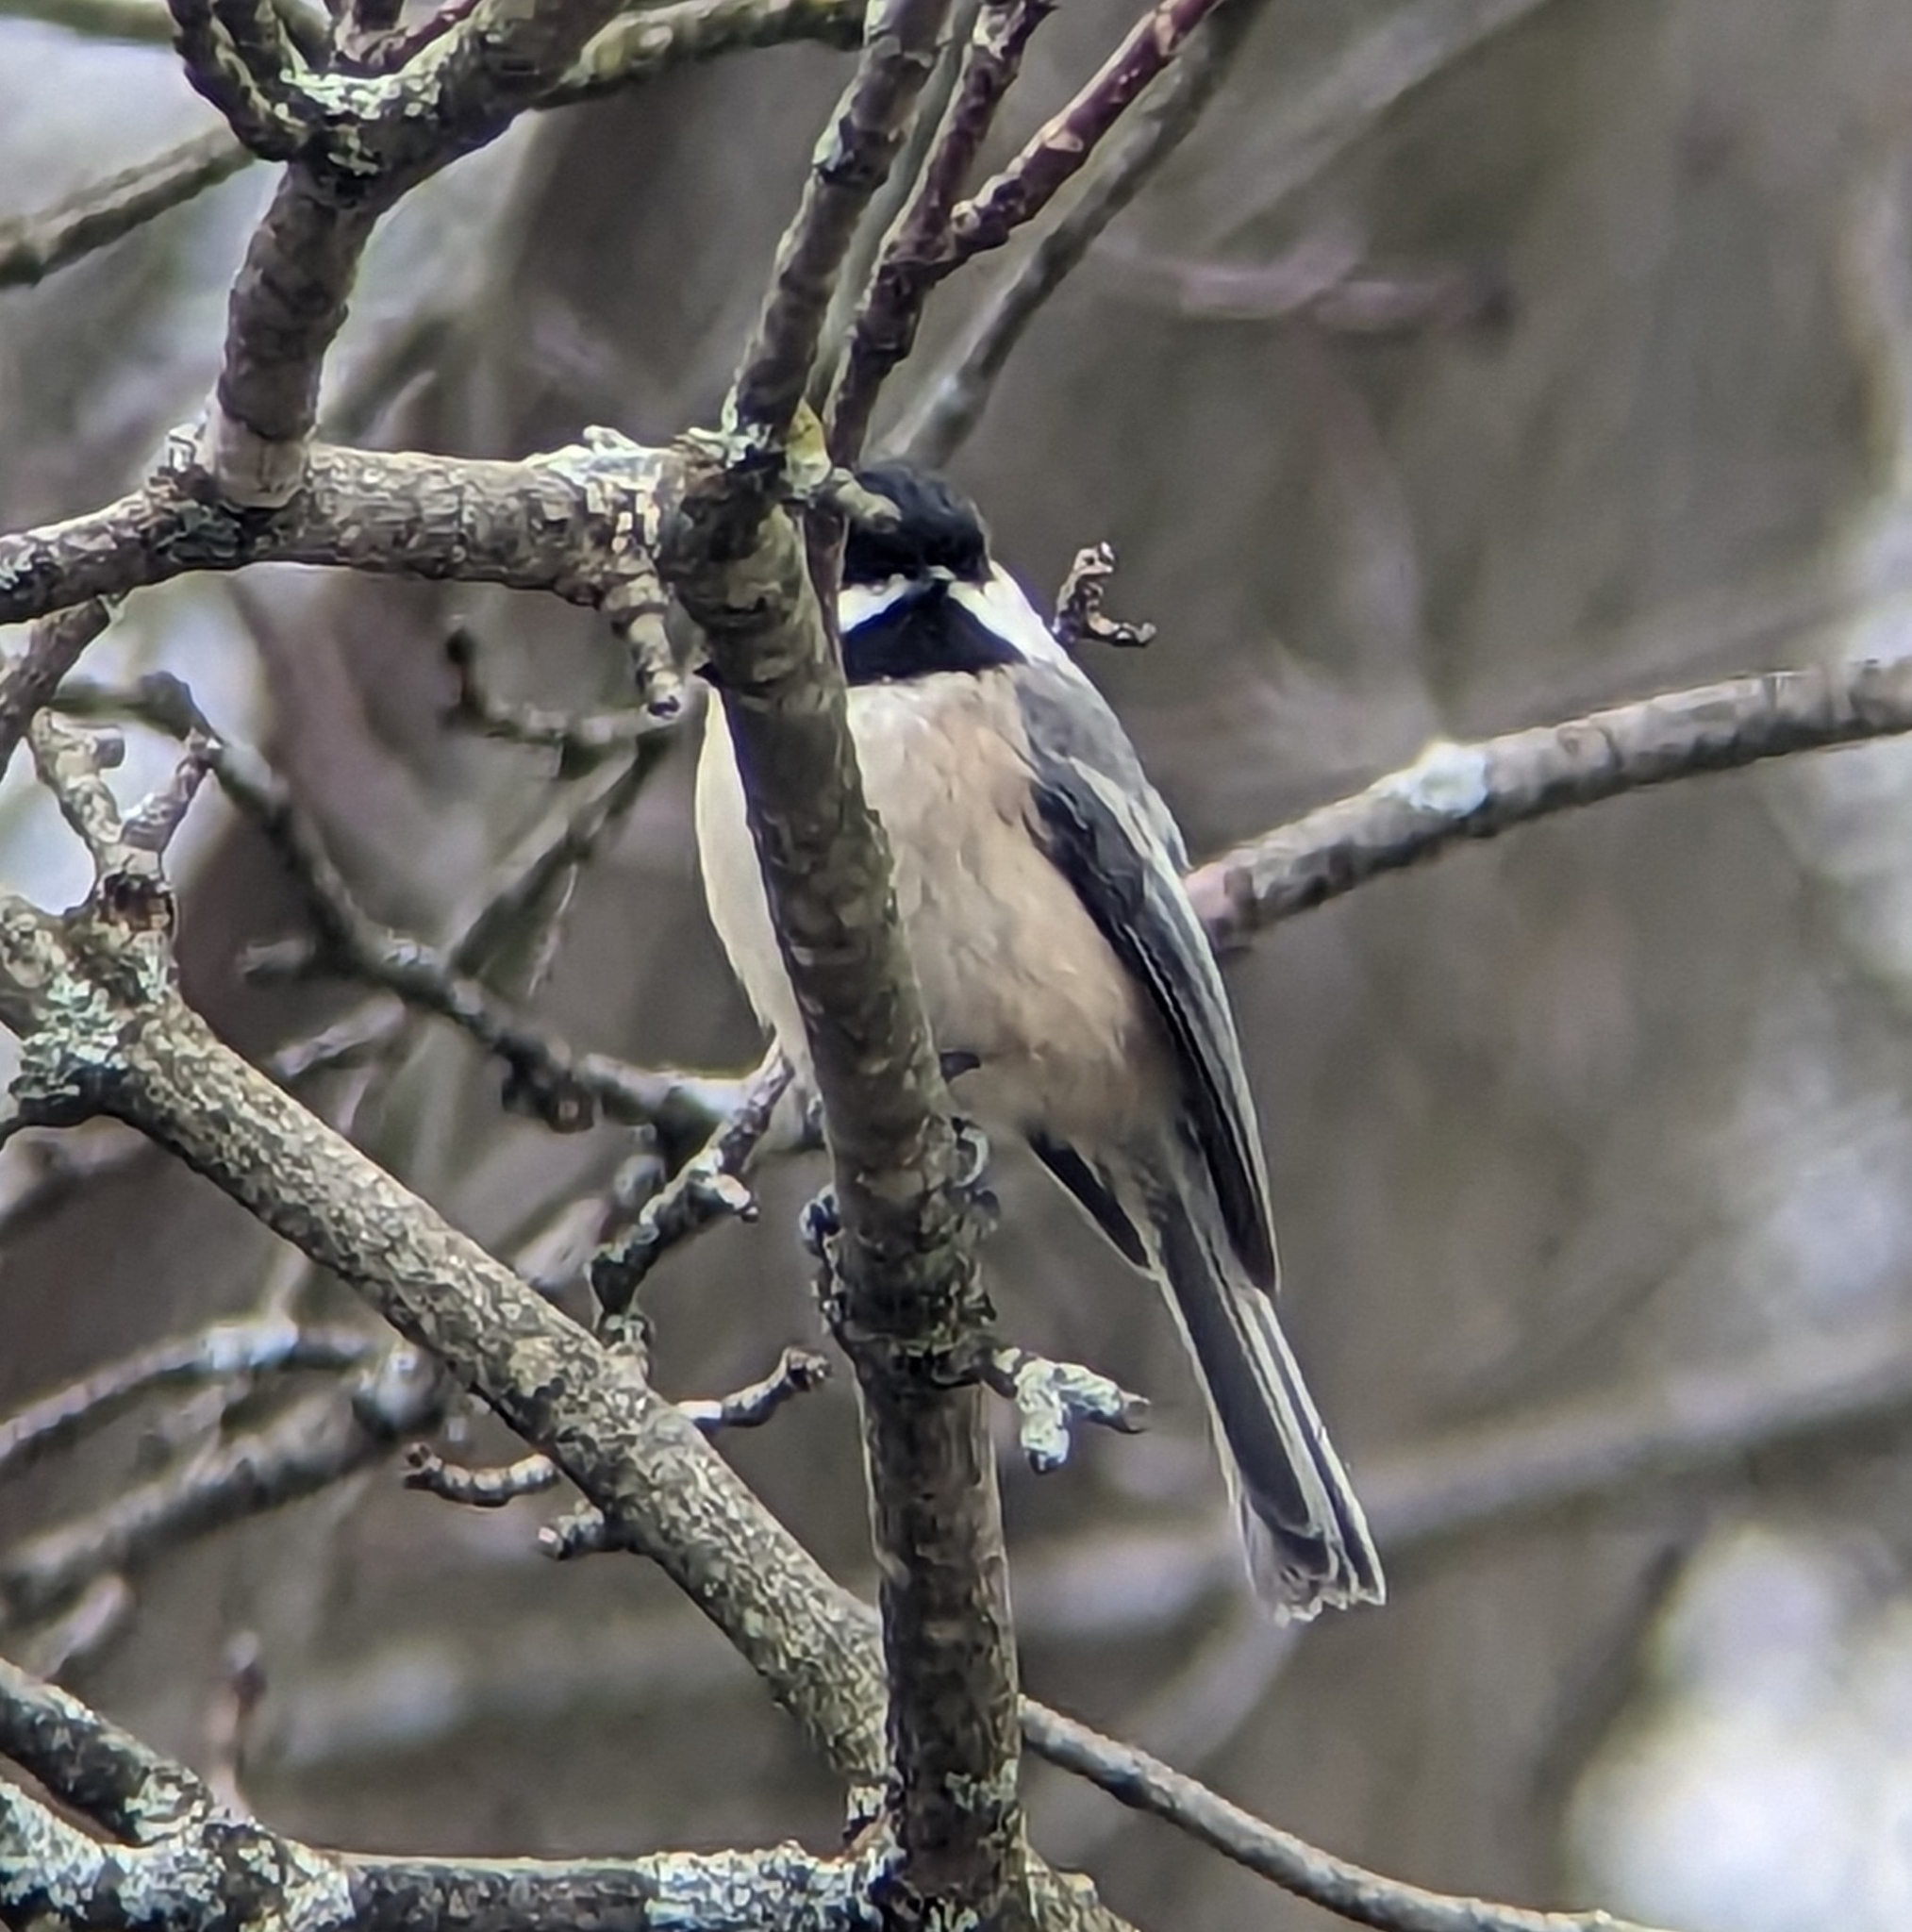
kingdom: Animalia
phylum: Chordata
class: Aves
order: Passeriformes
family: Paridae
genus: Poecile
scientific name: Poecile atricapillus
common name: Black-capped chickadee
